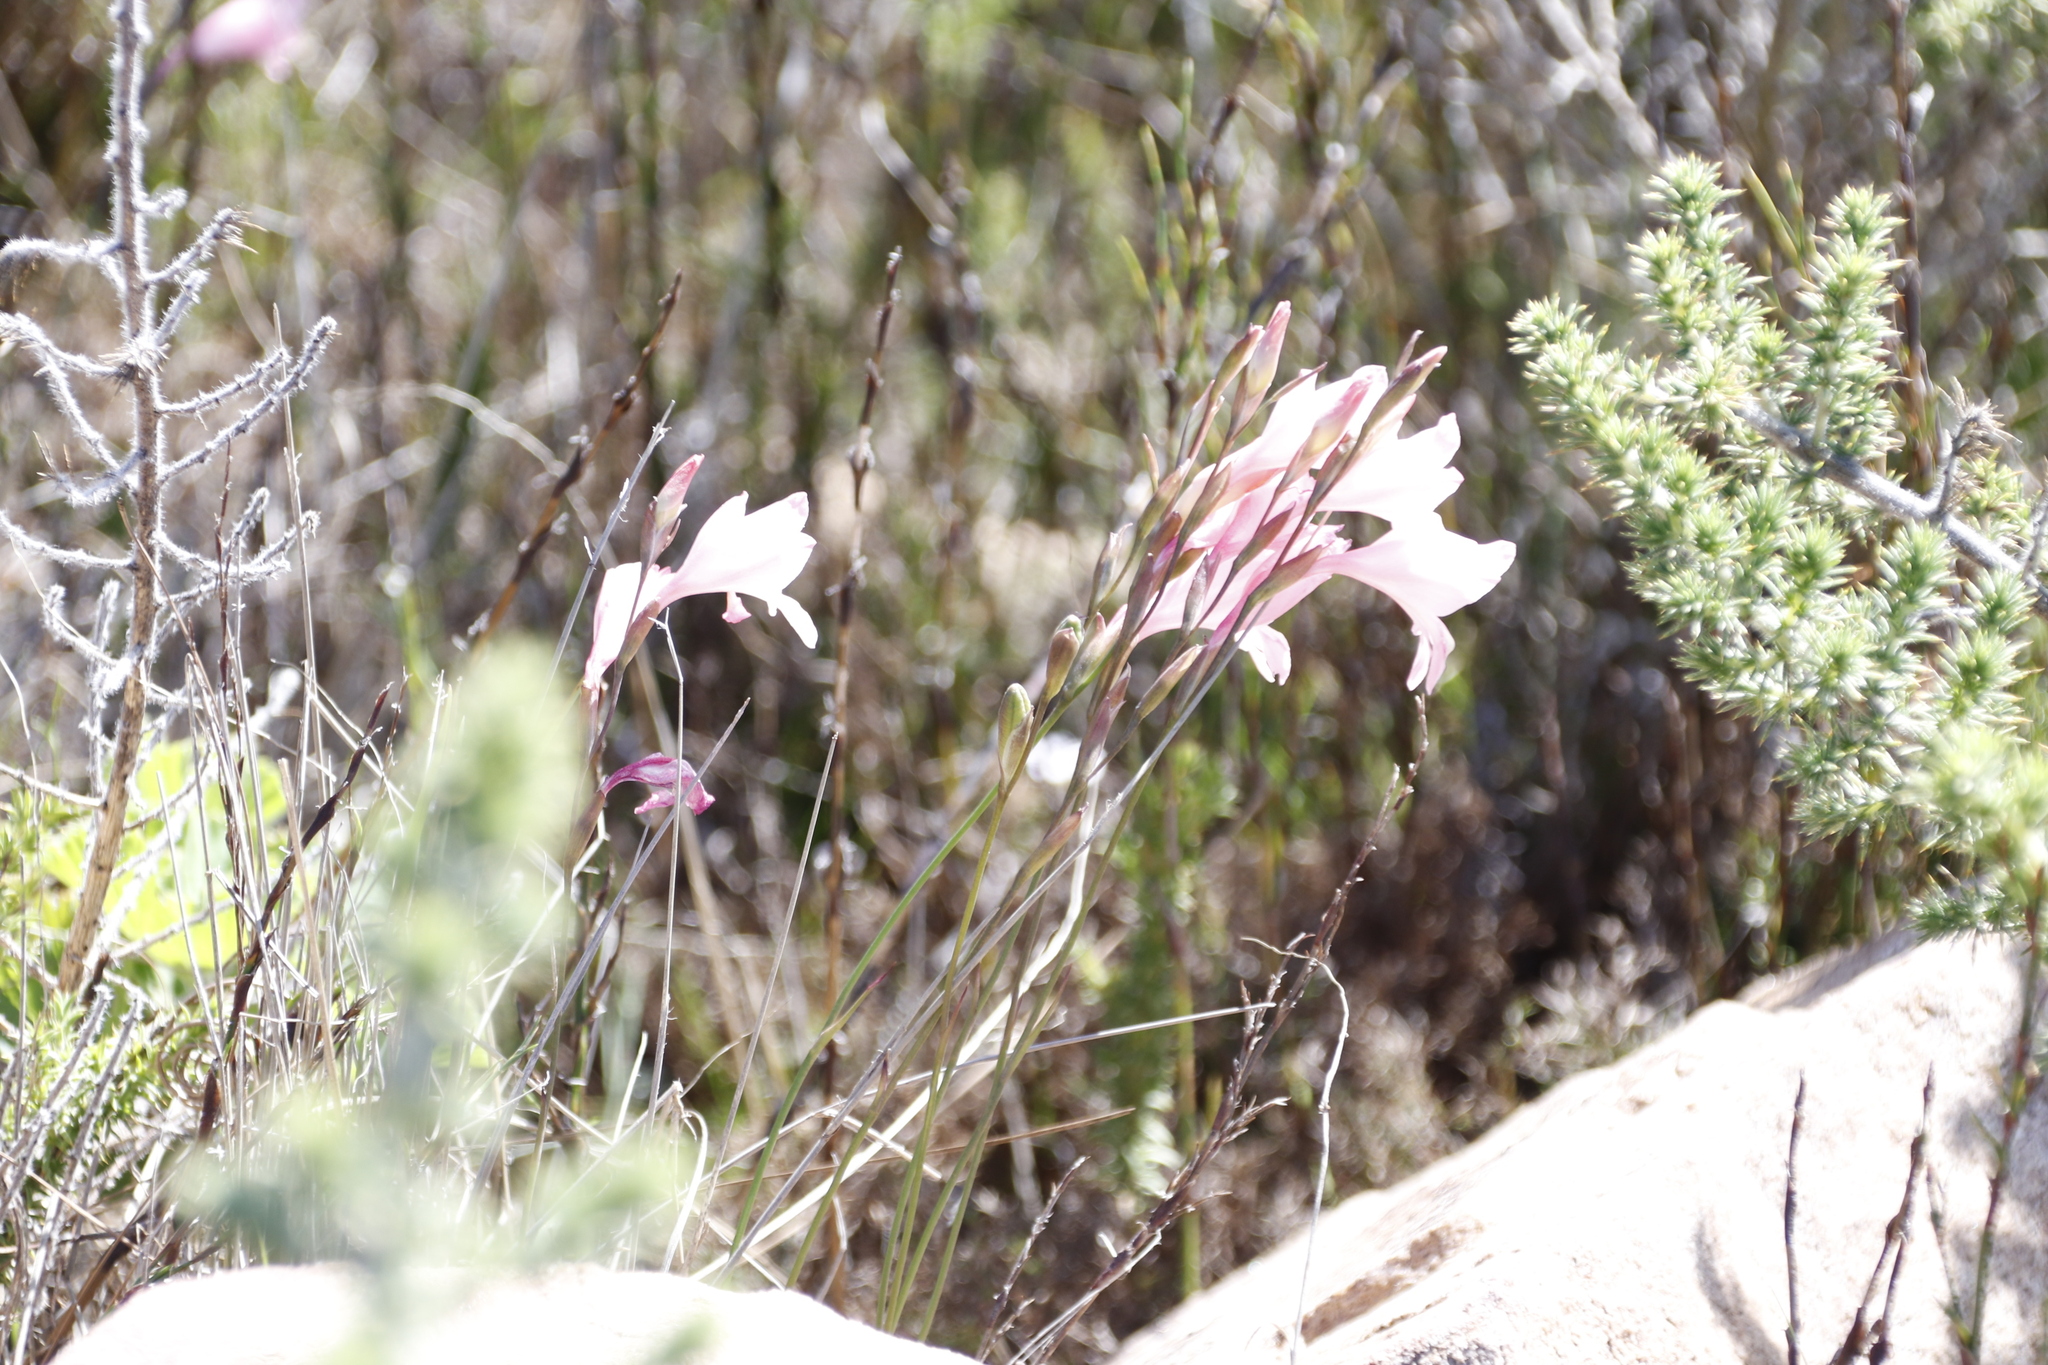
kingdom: Plantae
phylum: Tracheophyta
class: Liliopsida
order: Asparagales
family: Iridaceae
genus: Gladiolus
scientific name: Gladiolus brevifolius
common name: March pypie
